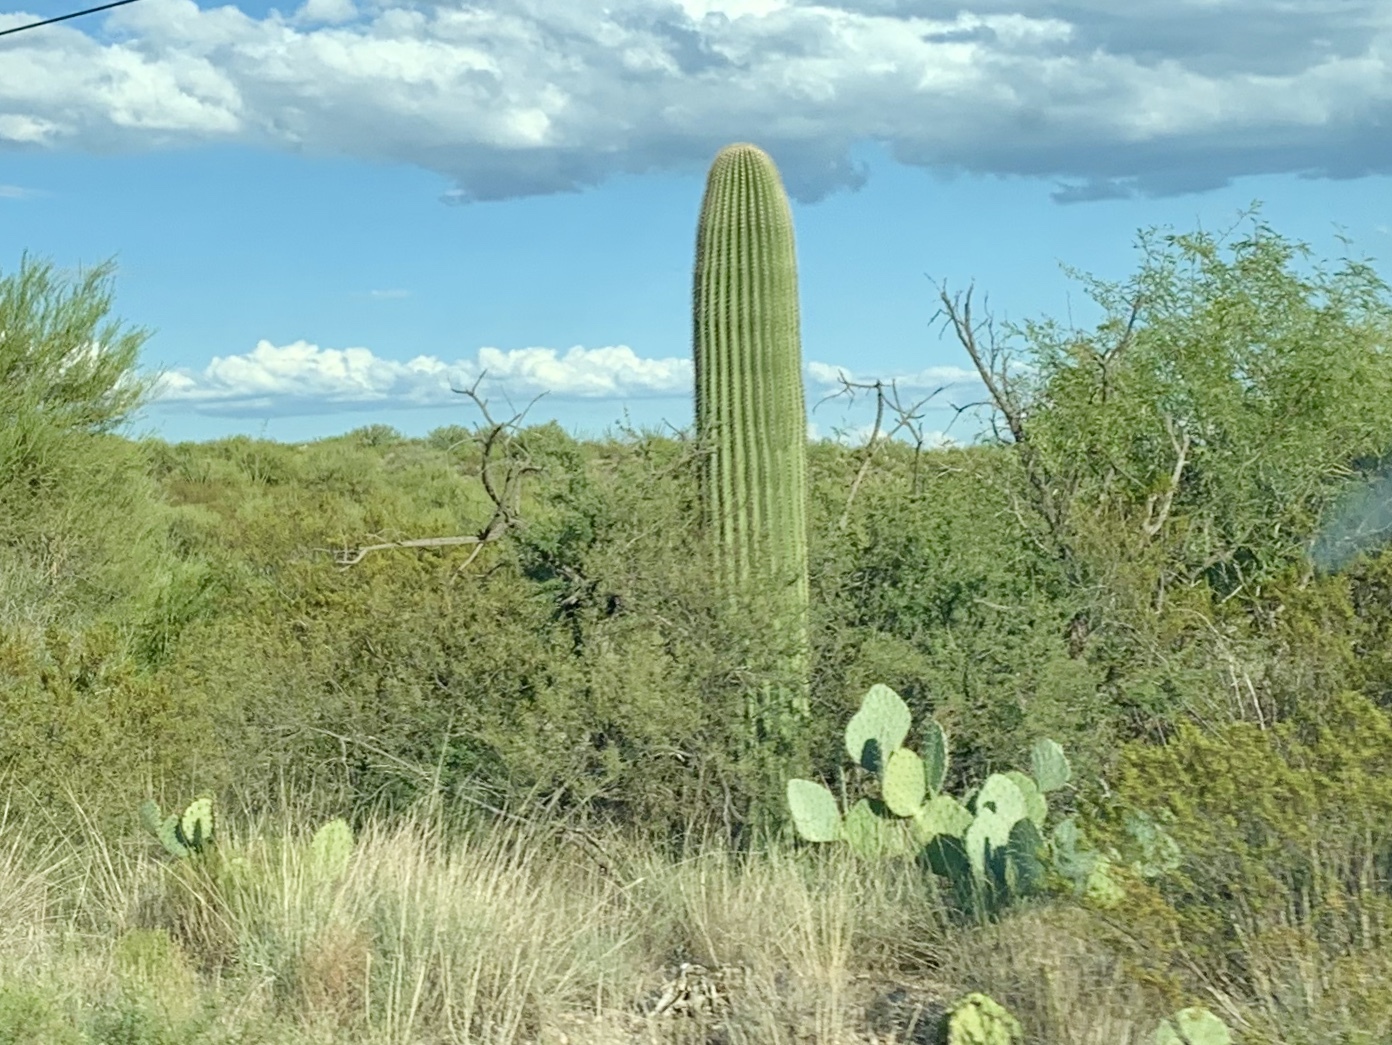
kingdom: Plantae
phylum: Tracheophyta
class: Magnoliopsida
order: Caryophyllales
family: Cactaceae
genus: Carnegiea
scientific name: Carnegiea gigantea
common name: Saguaro
